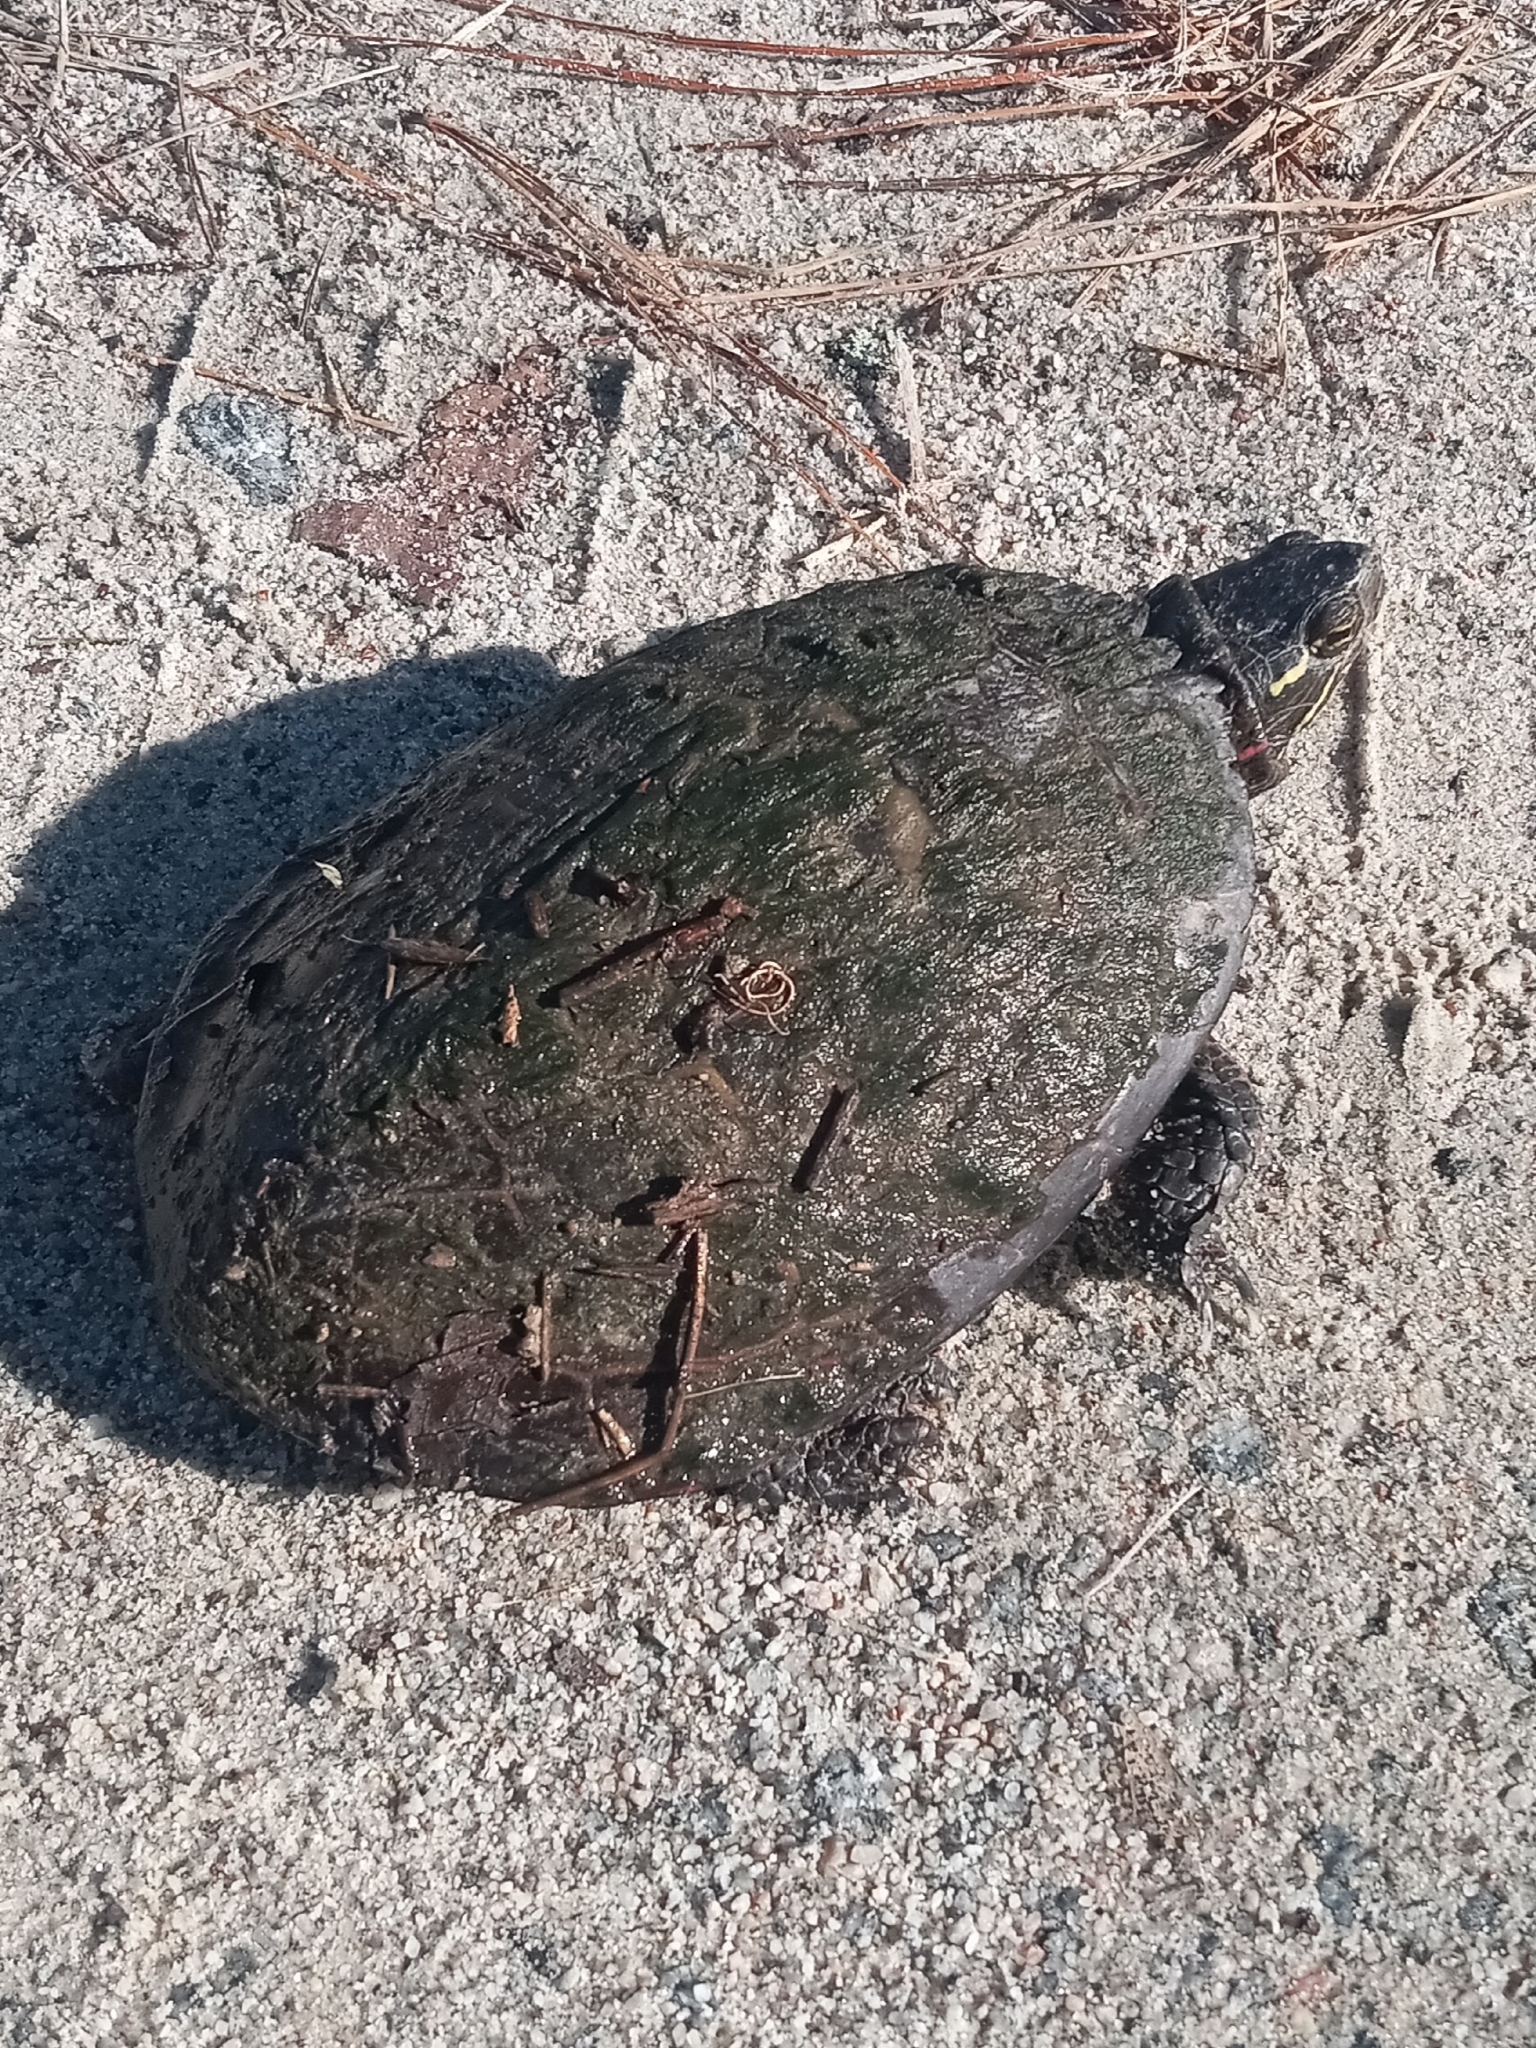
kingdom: Animalia
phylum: Chordata
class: Testudines
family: Emydidae
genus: Chrysemys
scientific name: Chrysemys picta
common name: Painted turtle
